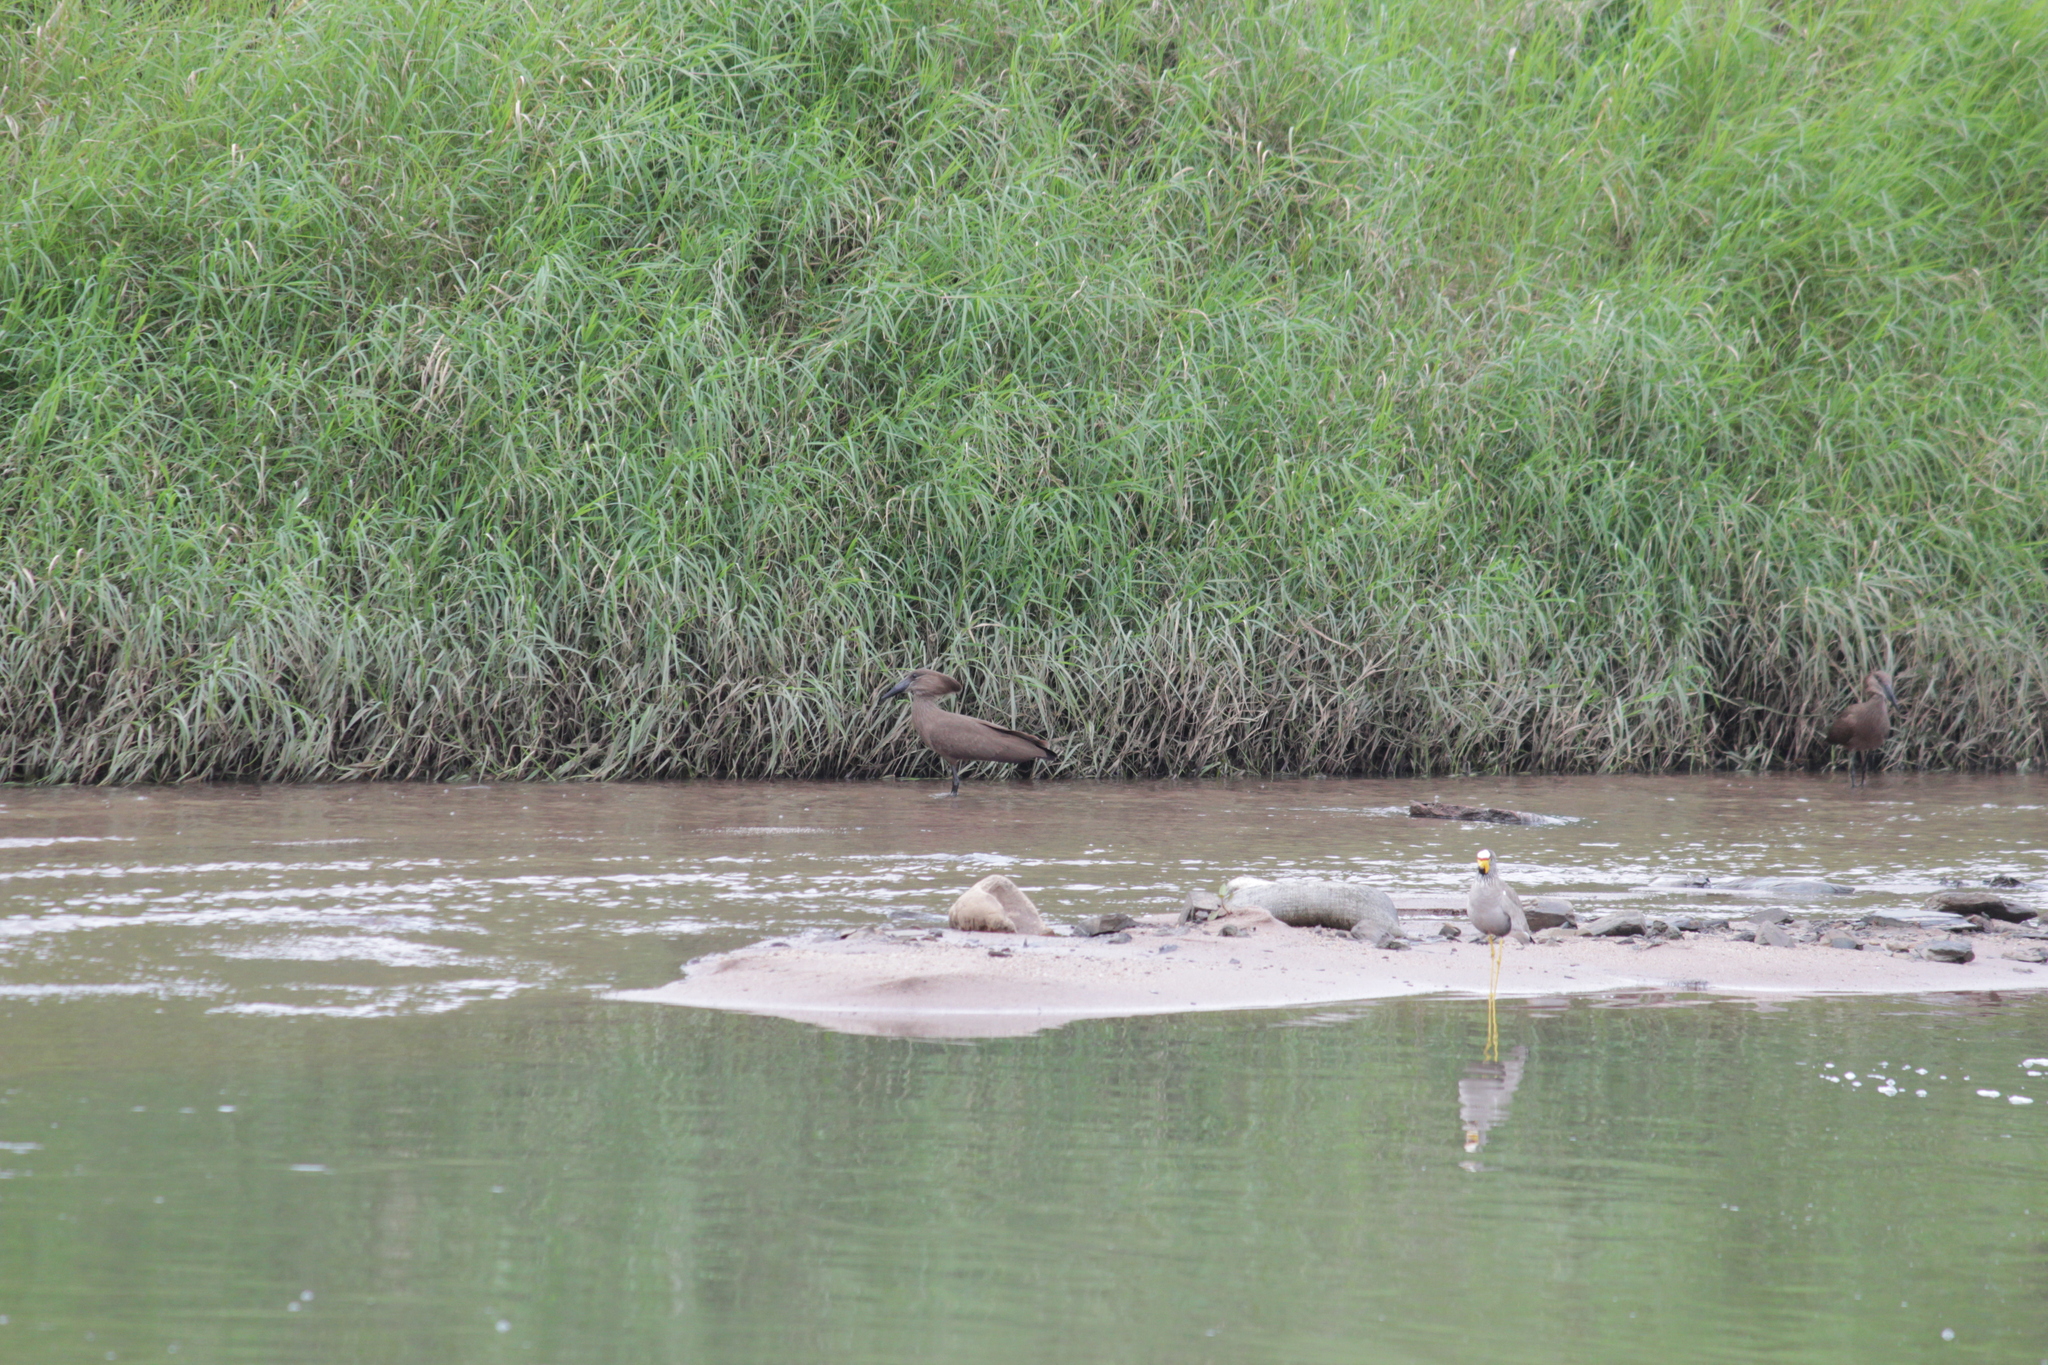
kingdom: Animalia
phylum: Chordata
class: Aves
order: Pelecaniformes
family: Scopidae
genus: Scopus
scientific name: Scopus umbretta
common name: Hamerkop
